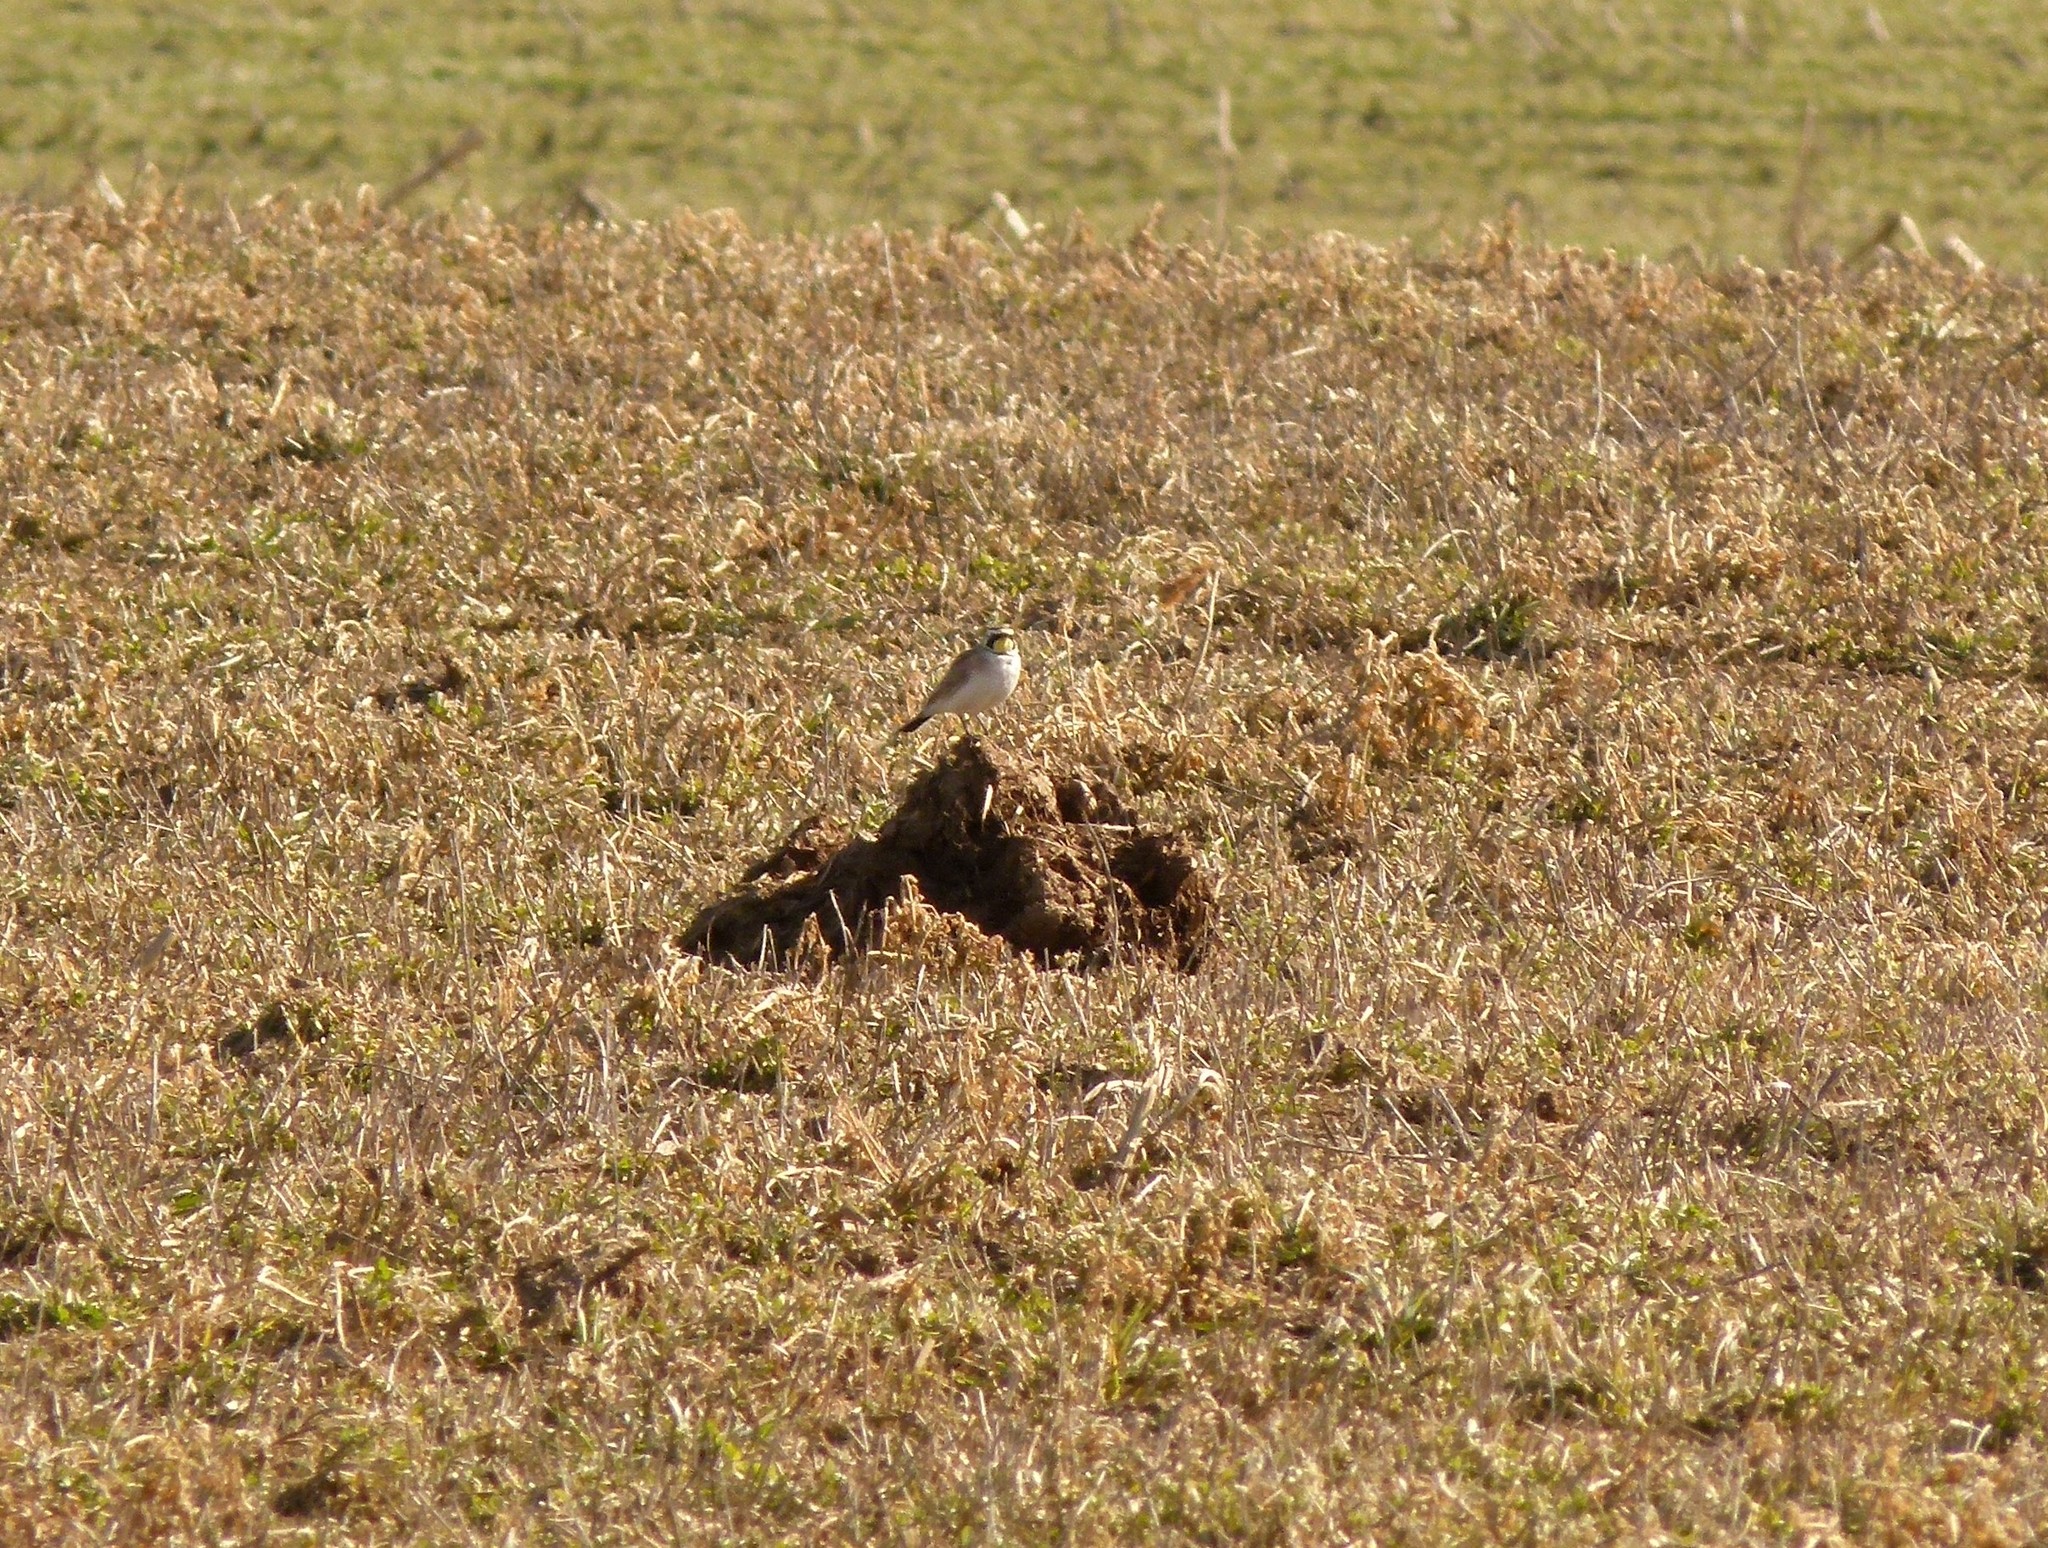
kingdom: Animalia
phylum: Chordata
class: Aves
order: Passeriformes
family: Alaudidae
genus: Eremophila
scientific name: Eremophila alpestris
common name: Horned lark
